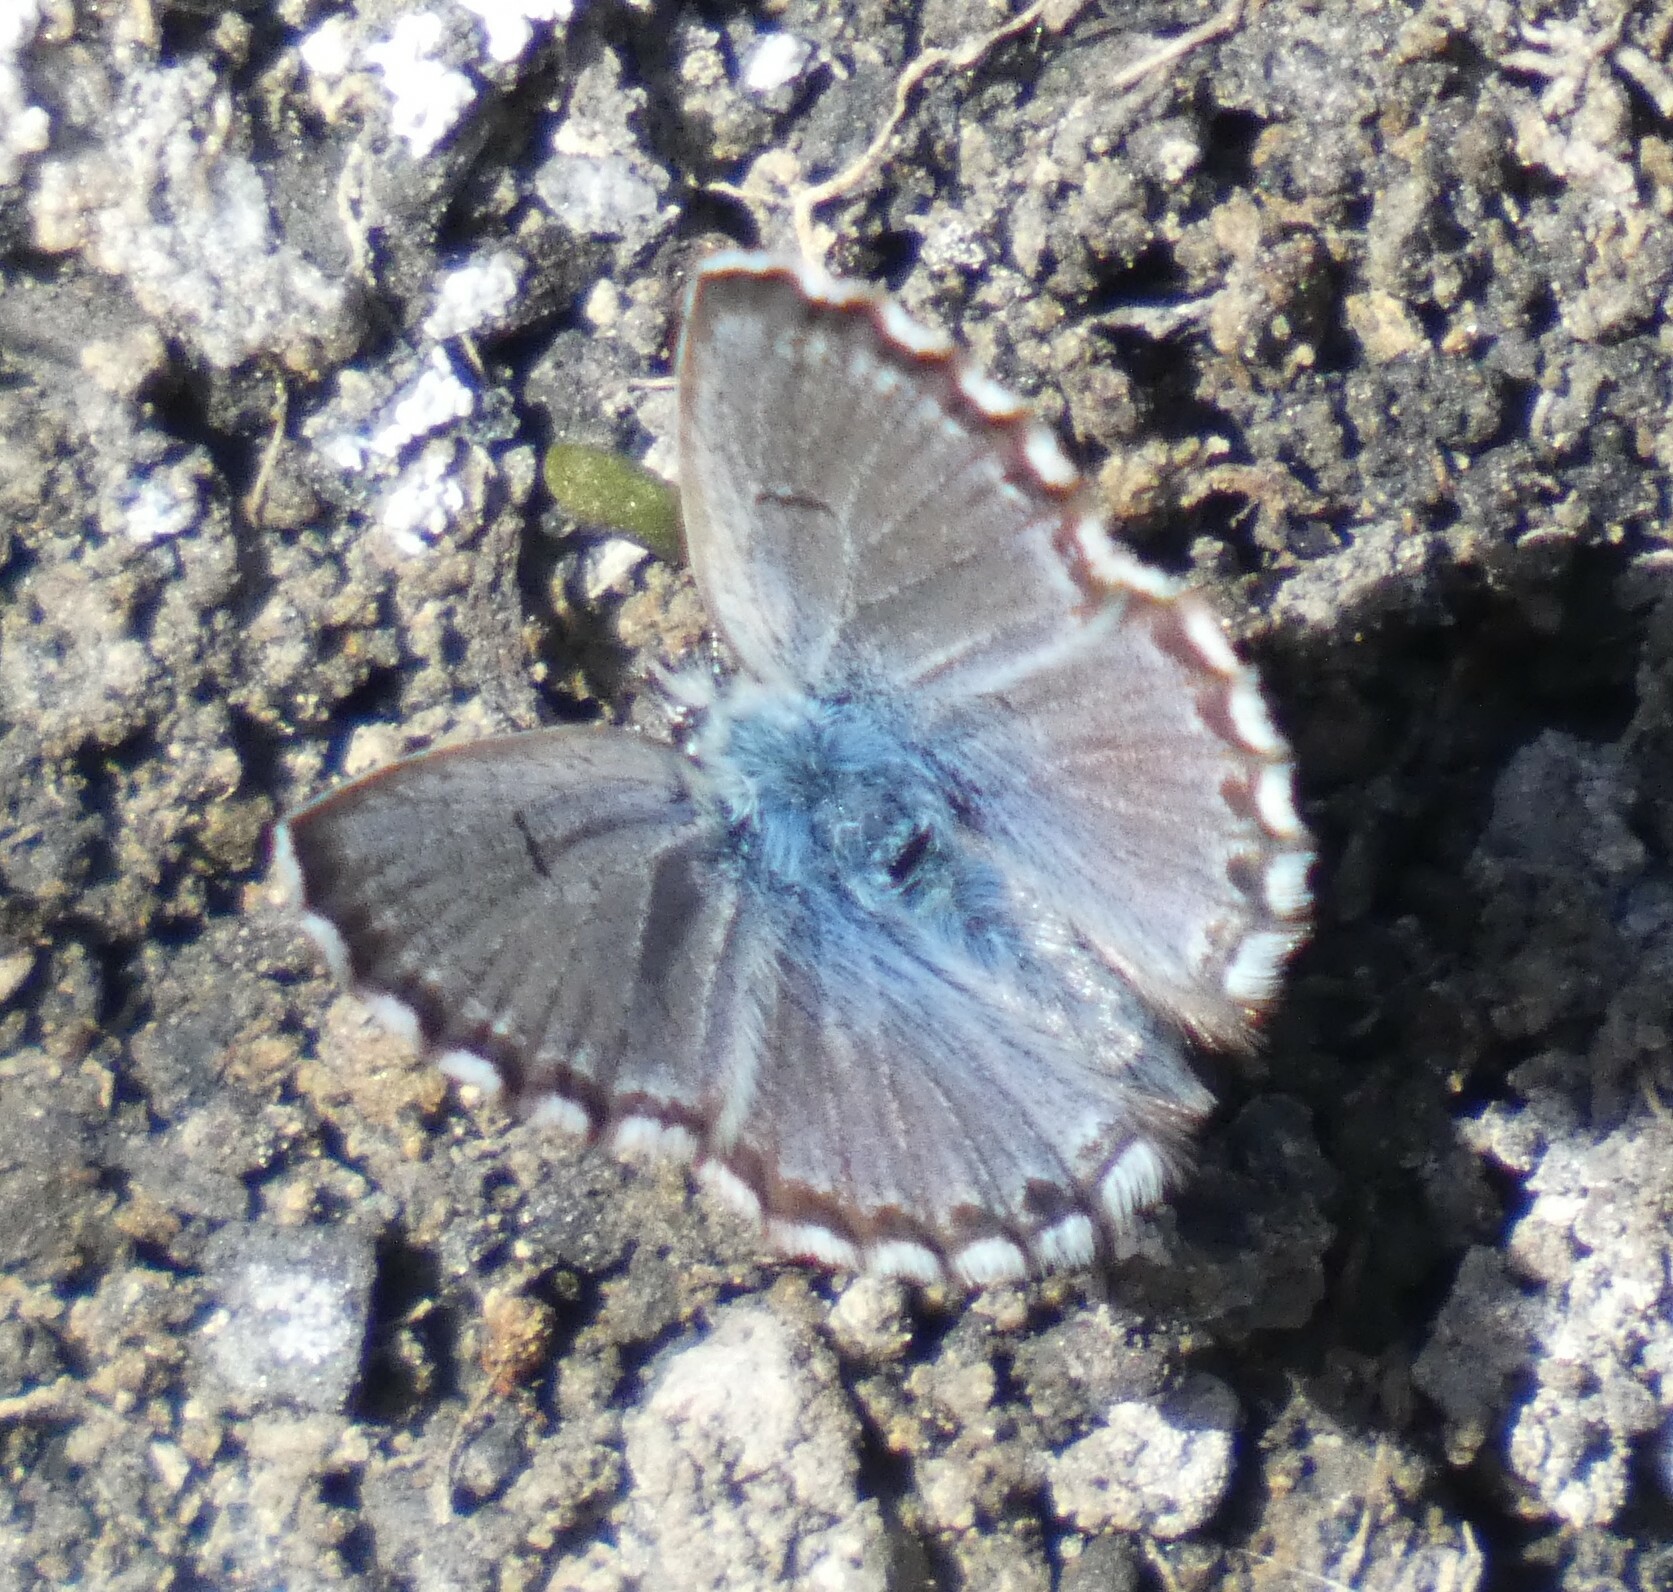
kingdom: Animalia
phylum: Arthropoda
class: Insecta
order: Lepidoptera
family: Lycaenidae
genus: Pseudophilotes
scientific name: Pseudophilotes baton
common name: Baton blue
